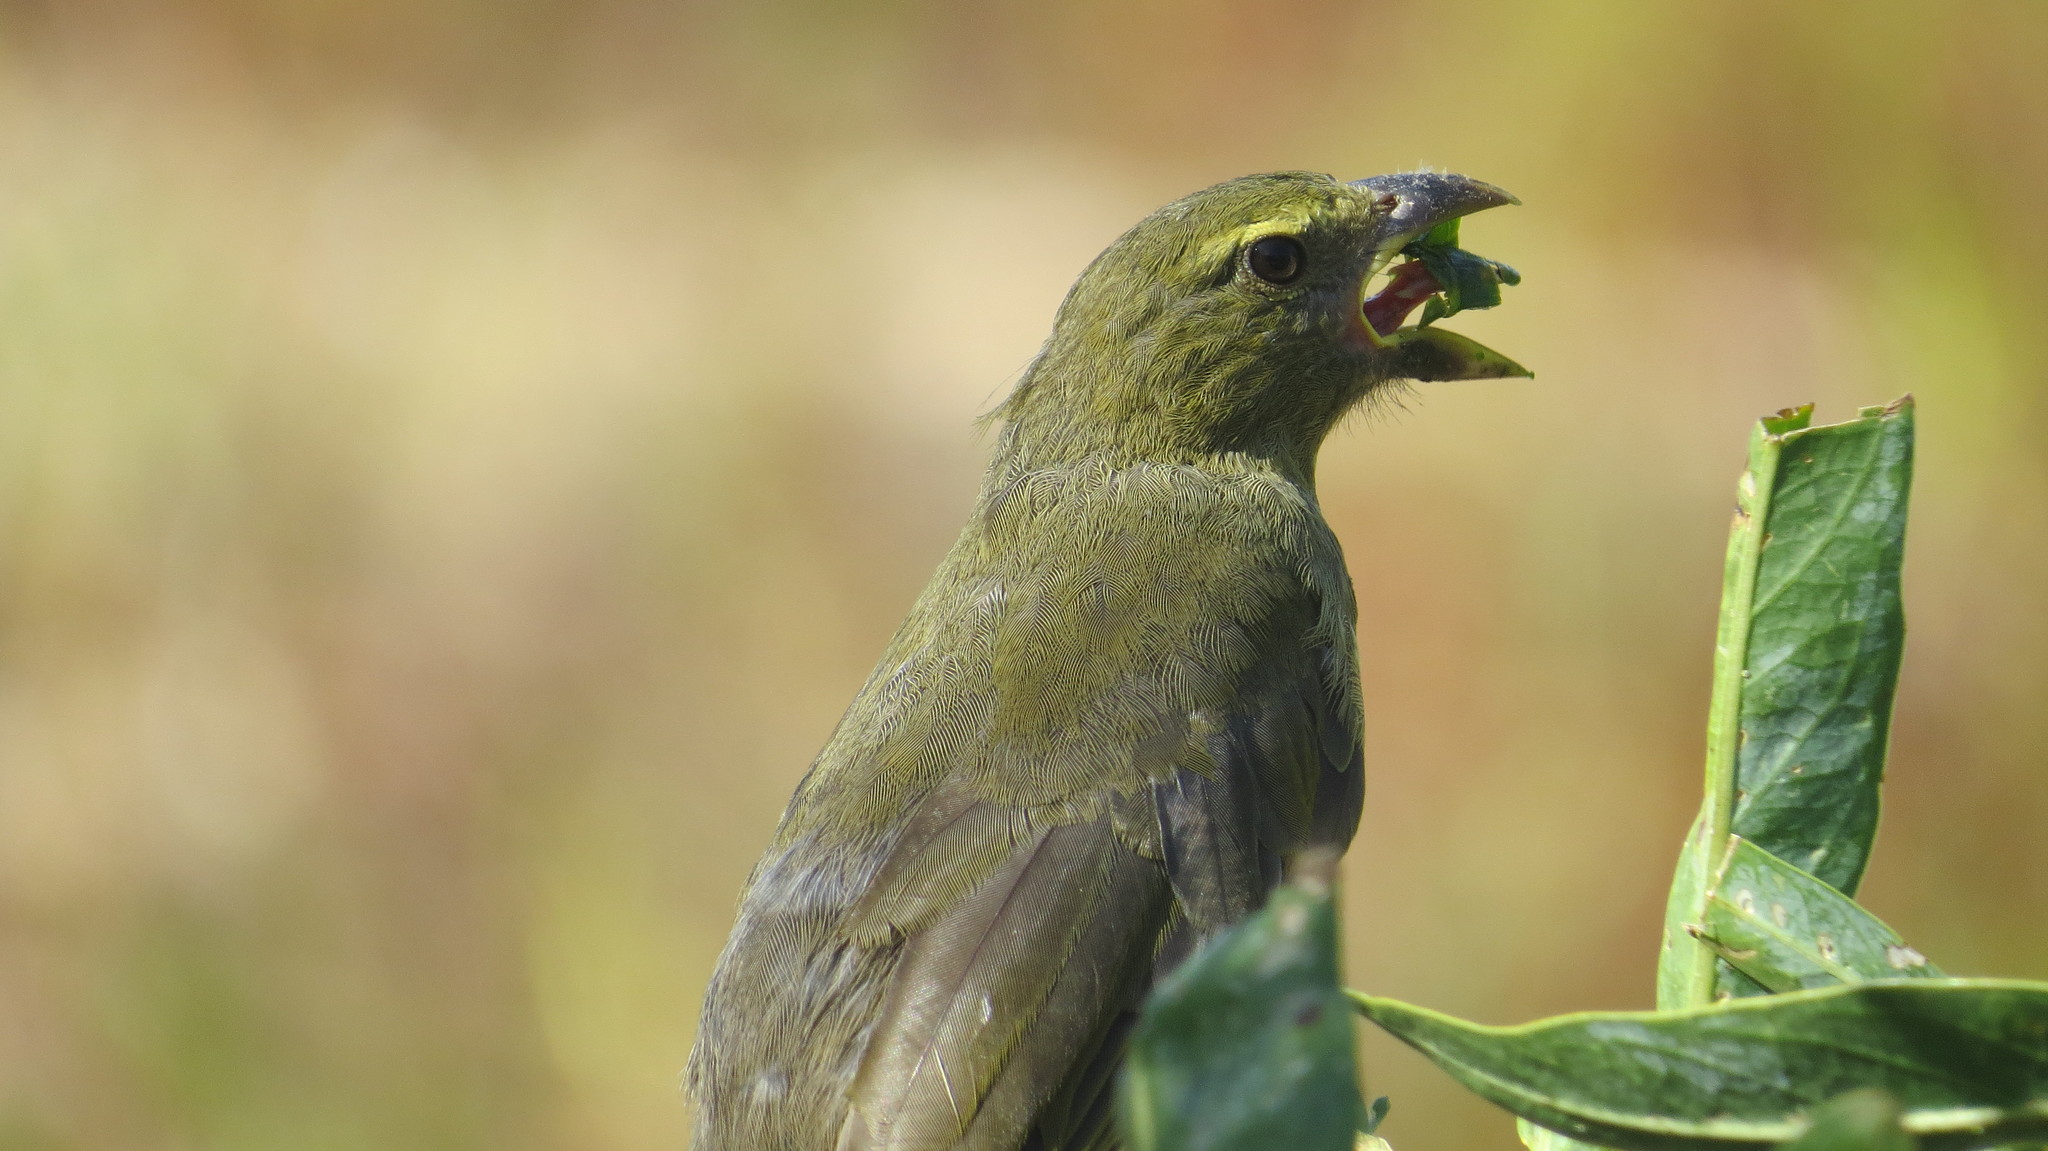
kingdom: Animalia
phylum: Chordata
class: Aves
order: Passeriformes
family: Thraupidae
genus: Saltator
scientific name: Saltator coerulescens
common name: Grayish saltator
